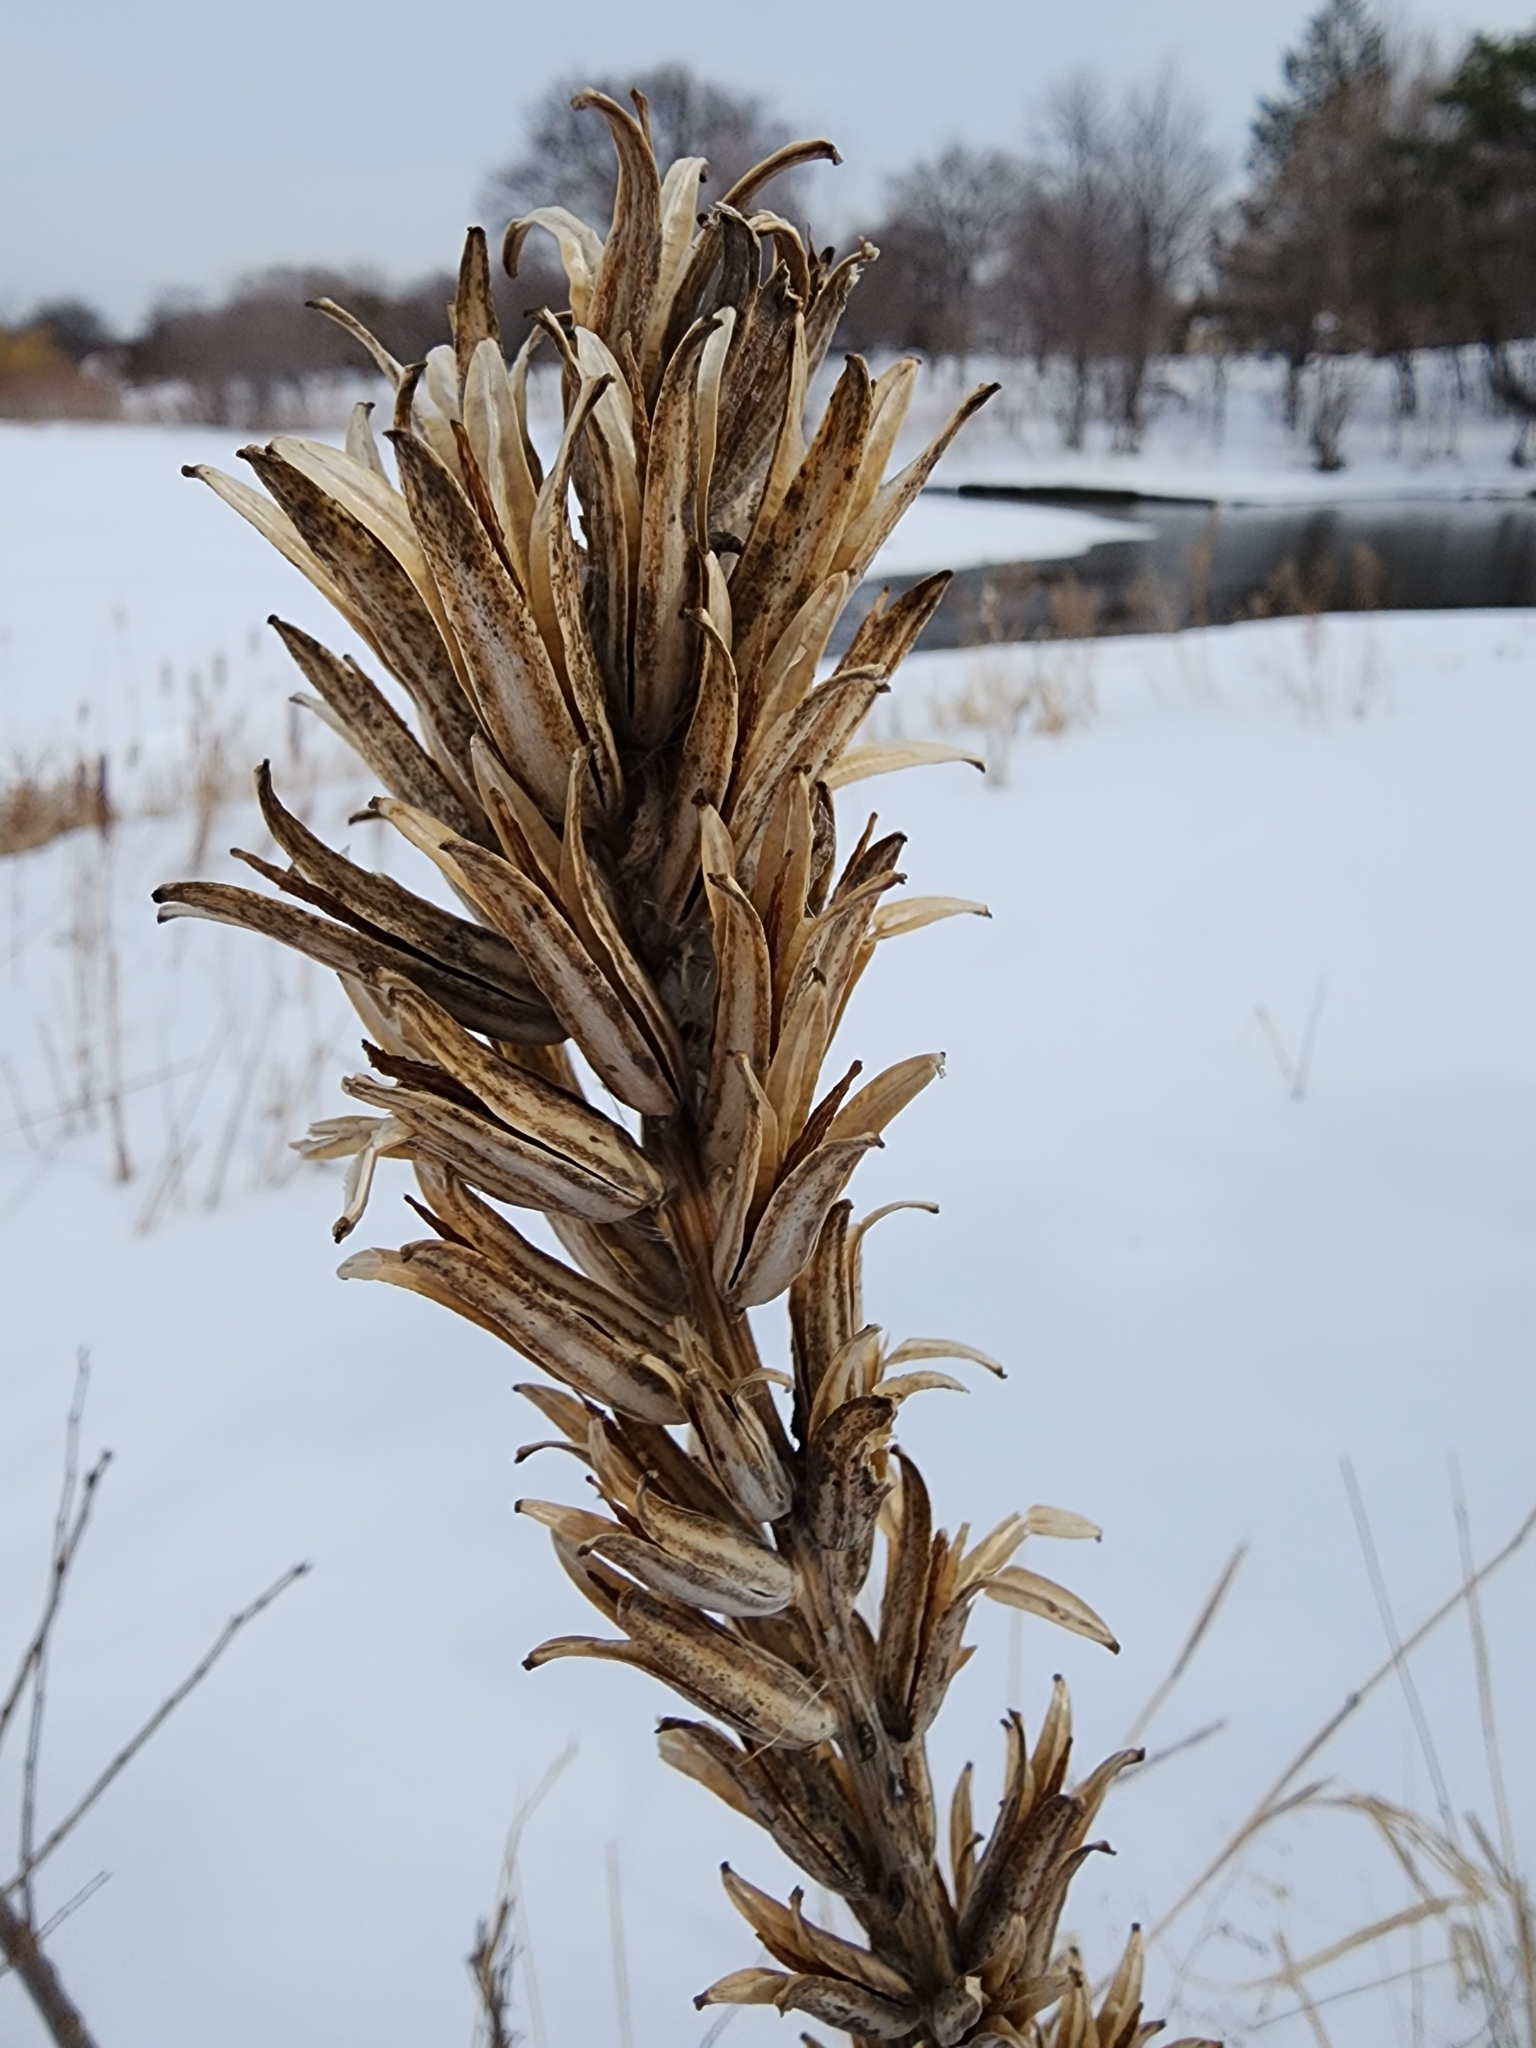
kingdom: Plantae
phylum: Tracheophyta
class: Magnoliopsida
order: Myrtales
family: Onagraceae
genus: Oenothera
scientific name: Oenothera biennis
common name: Common evening-primrose
